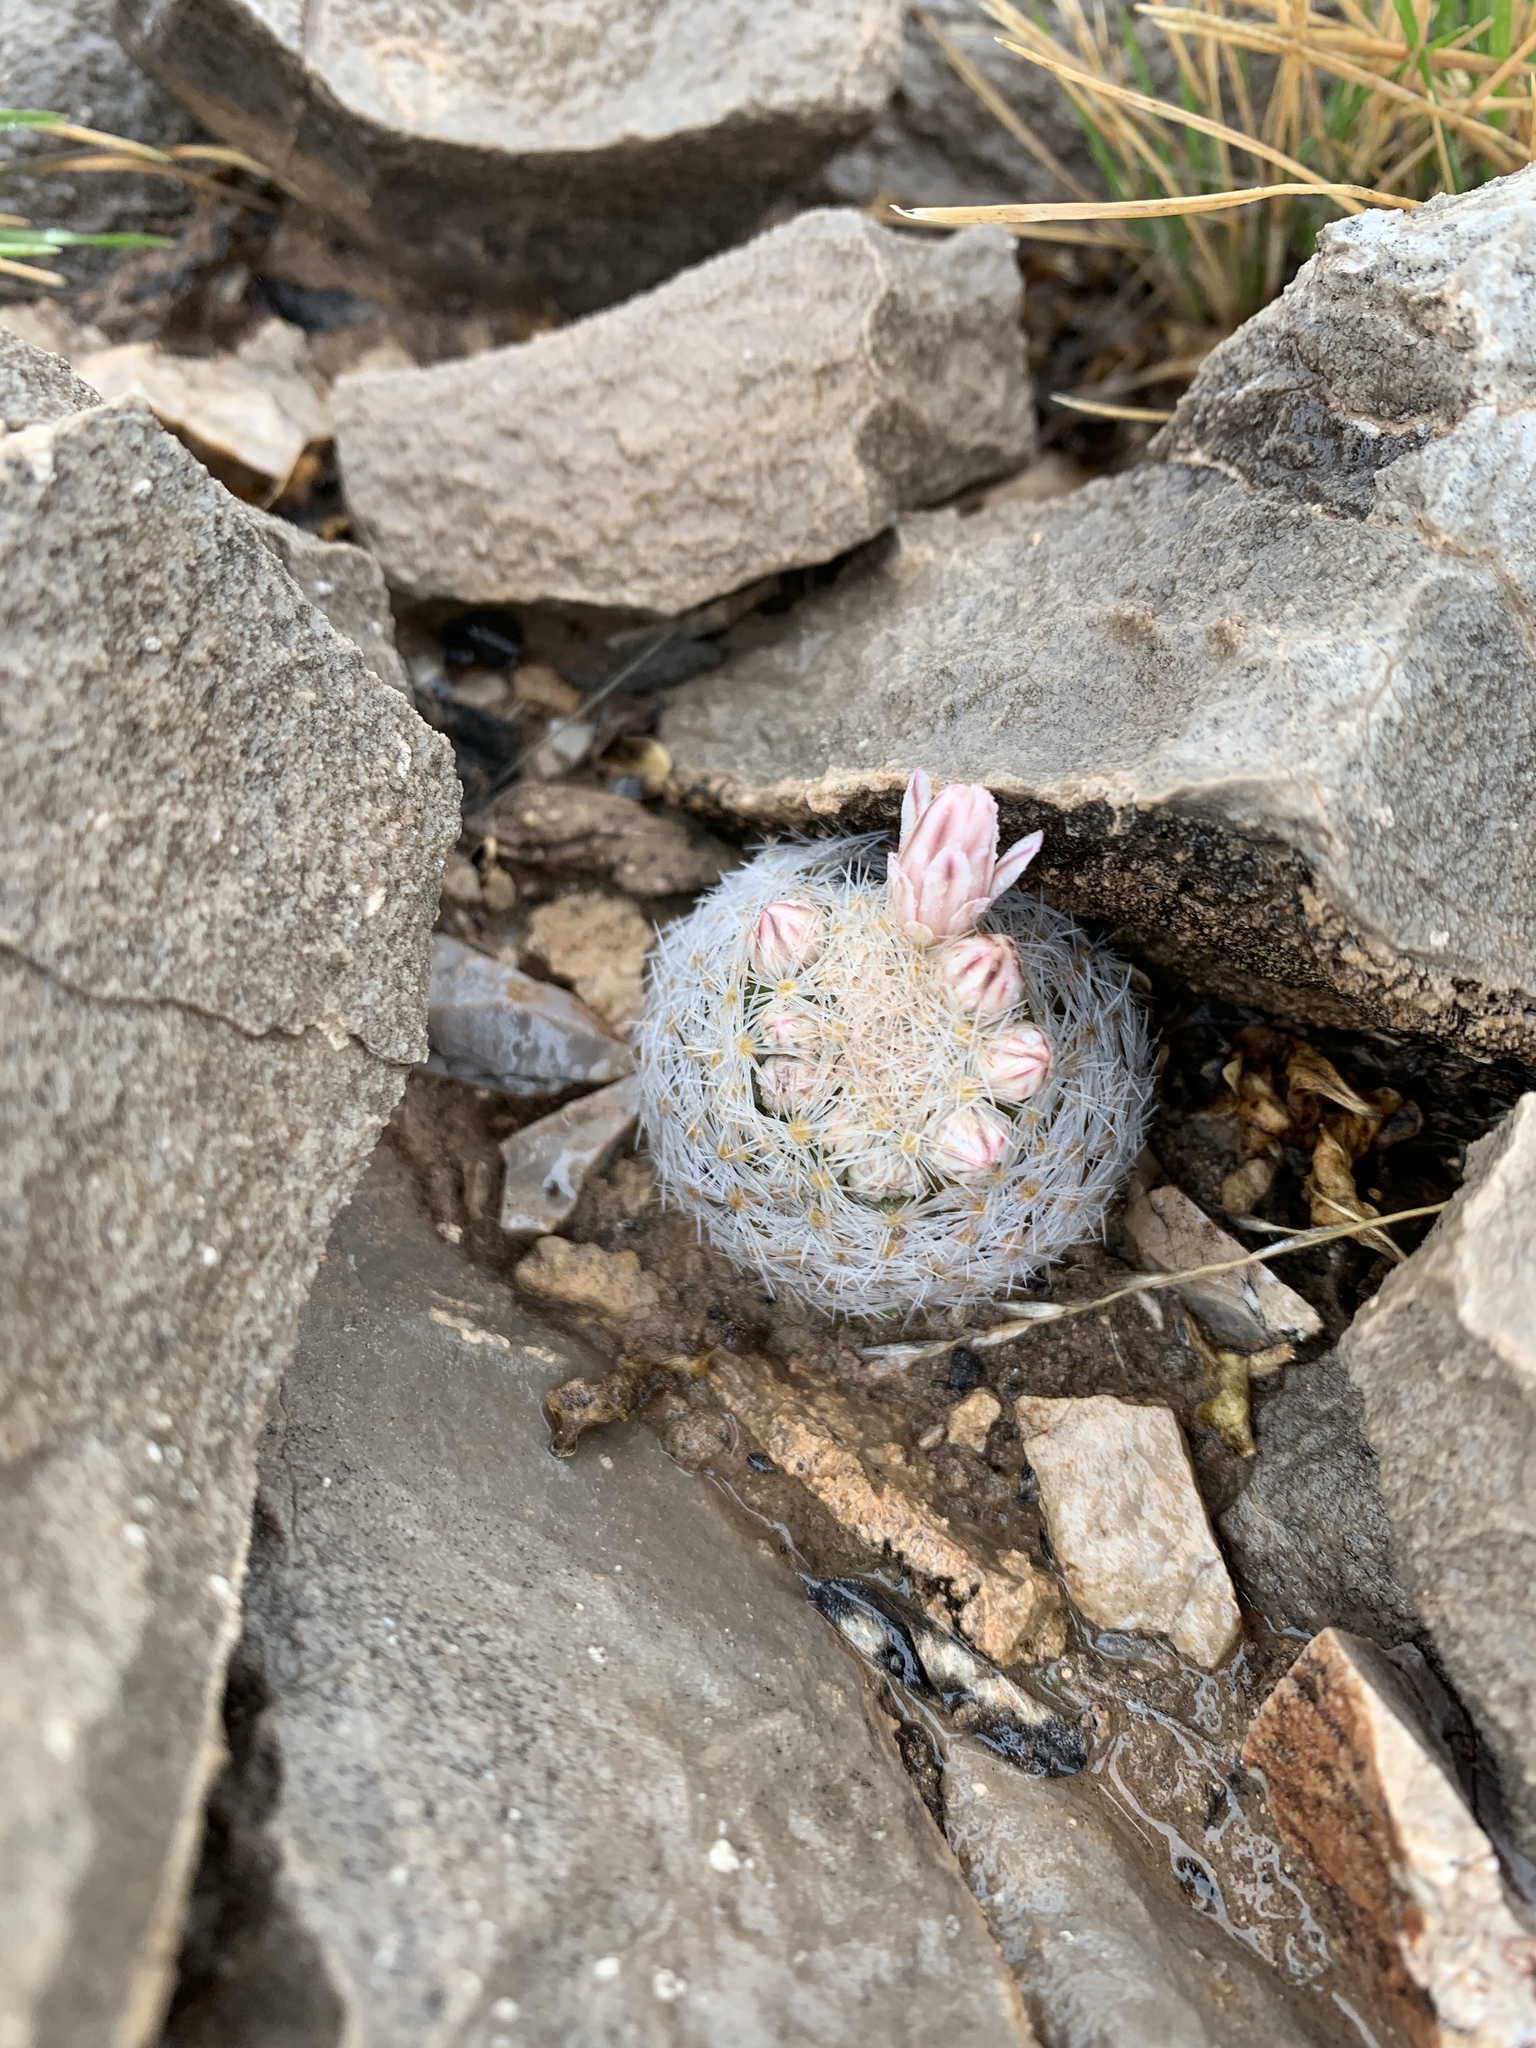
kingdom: Plantae
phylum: Tracheophyta
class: Magnoliopsida
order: Caryophyllales
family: Cactaceae
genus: Mammillaria
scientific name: Mammillaria lasiacantha
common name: Lace-spine nipple cactus
